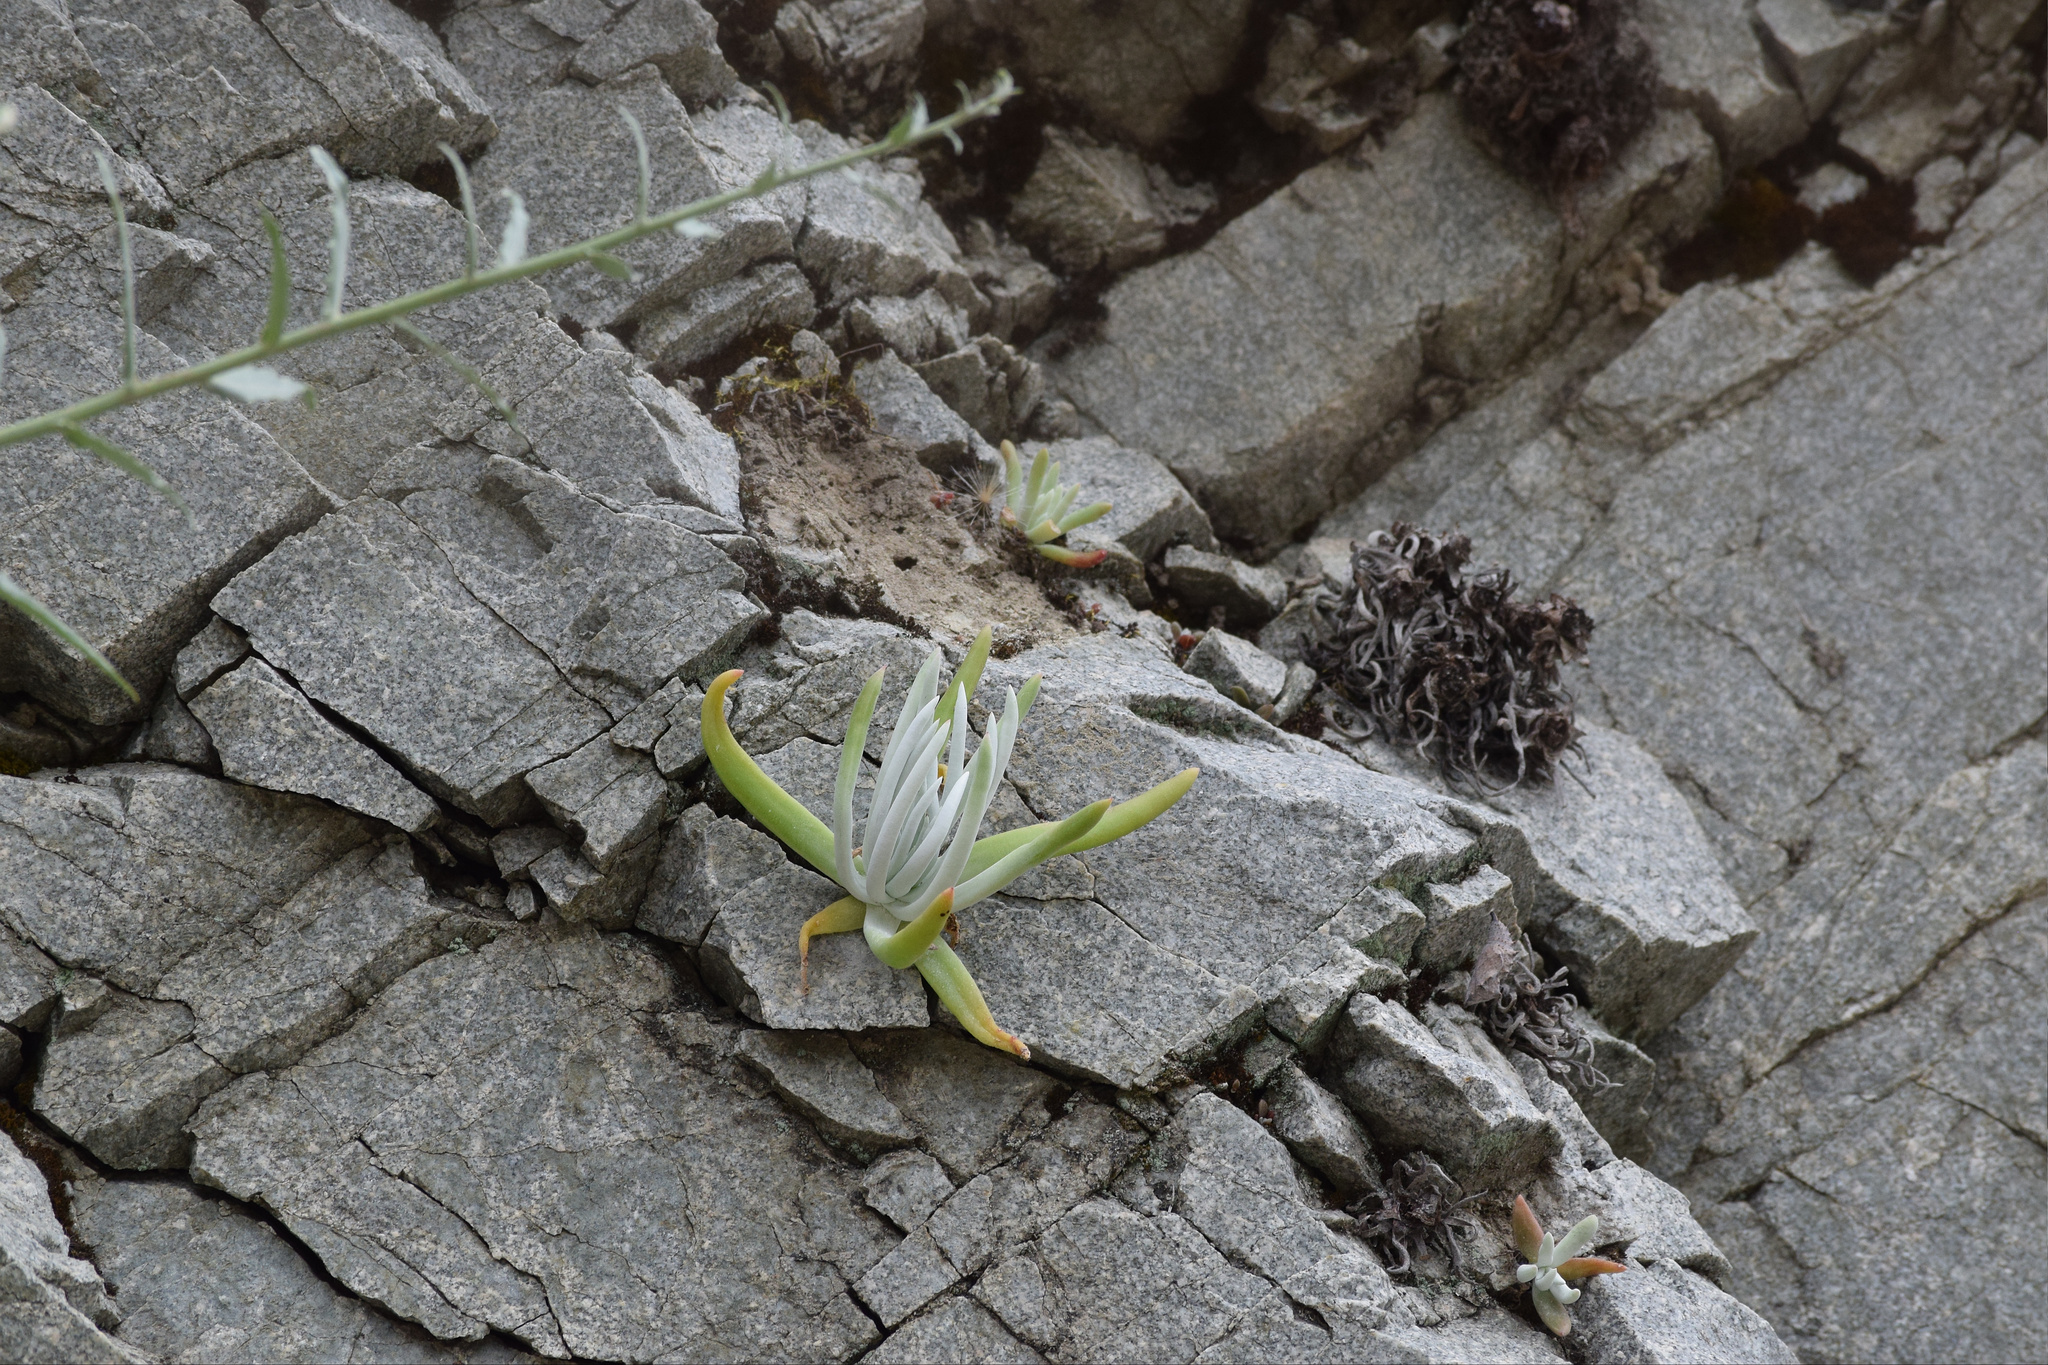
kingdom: Plantae
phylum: Tracheophyta
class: Magnoliopsida
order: Saxifragales
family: Crassulaceae
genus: Dudleya
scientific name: Dudleya densiflora
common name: San gabriel mountains dudleya
